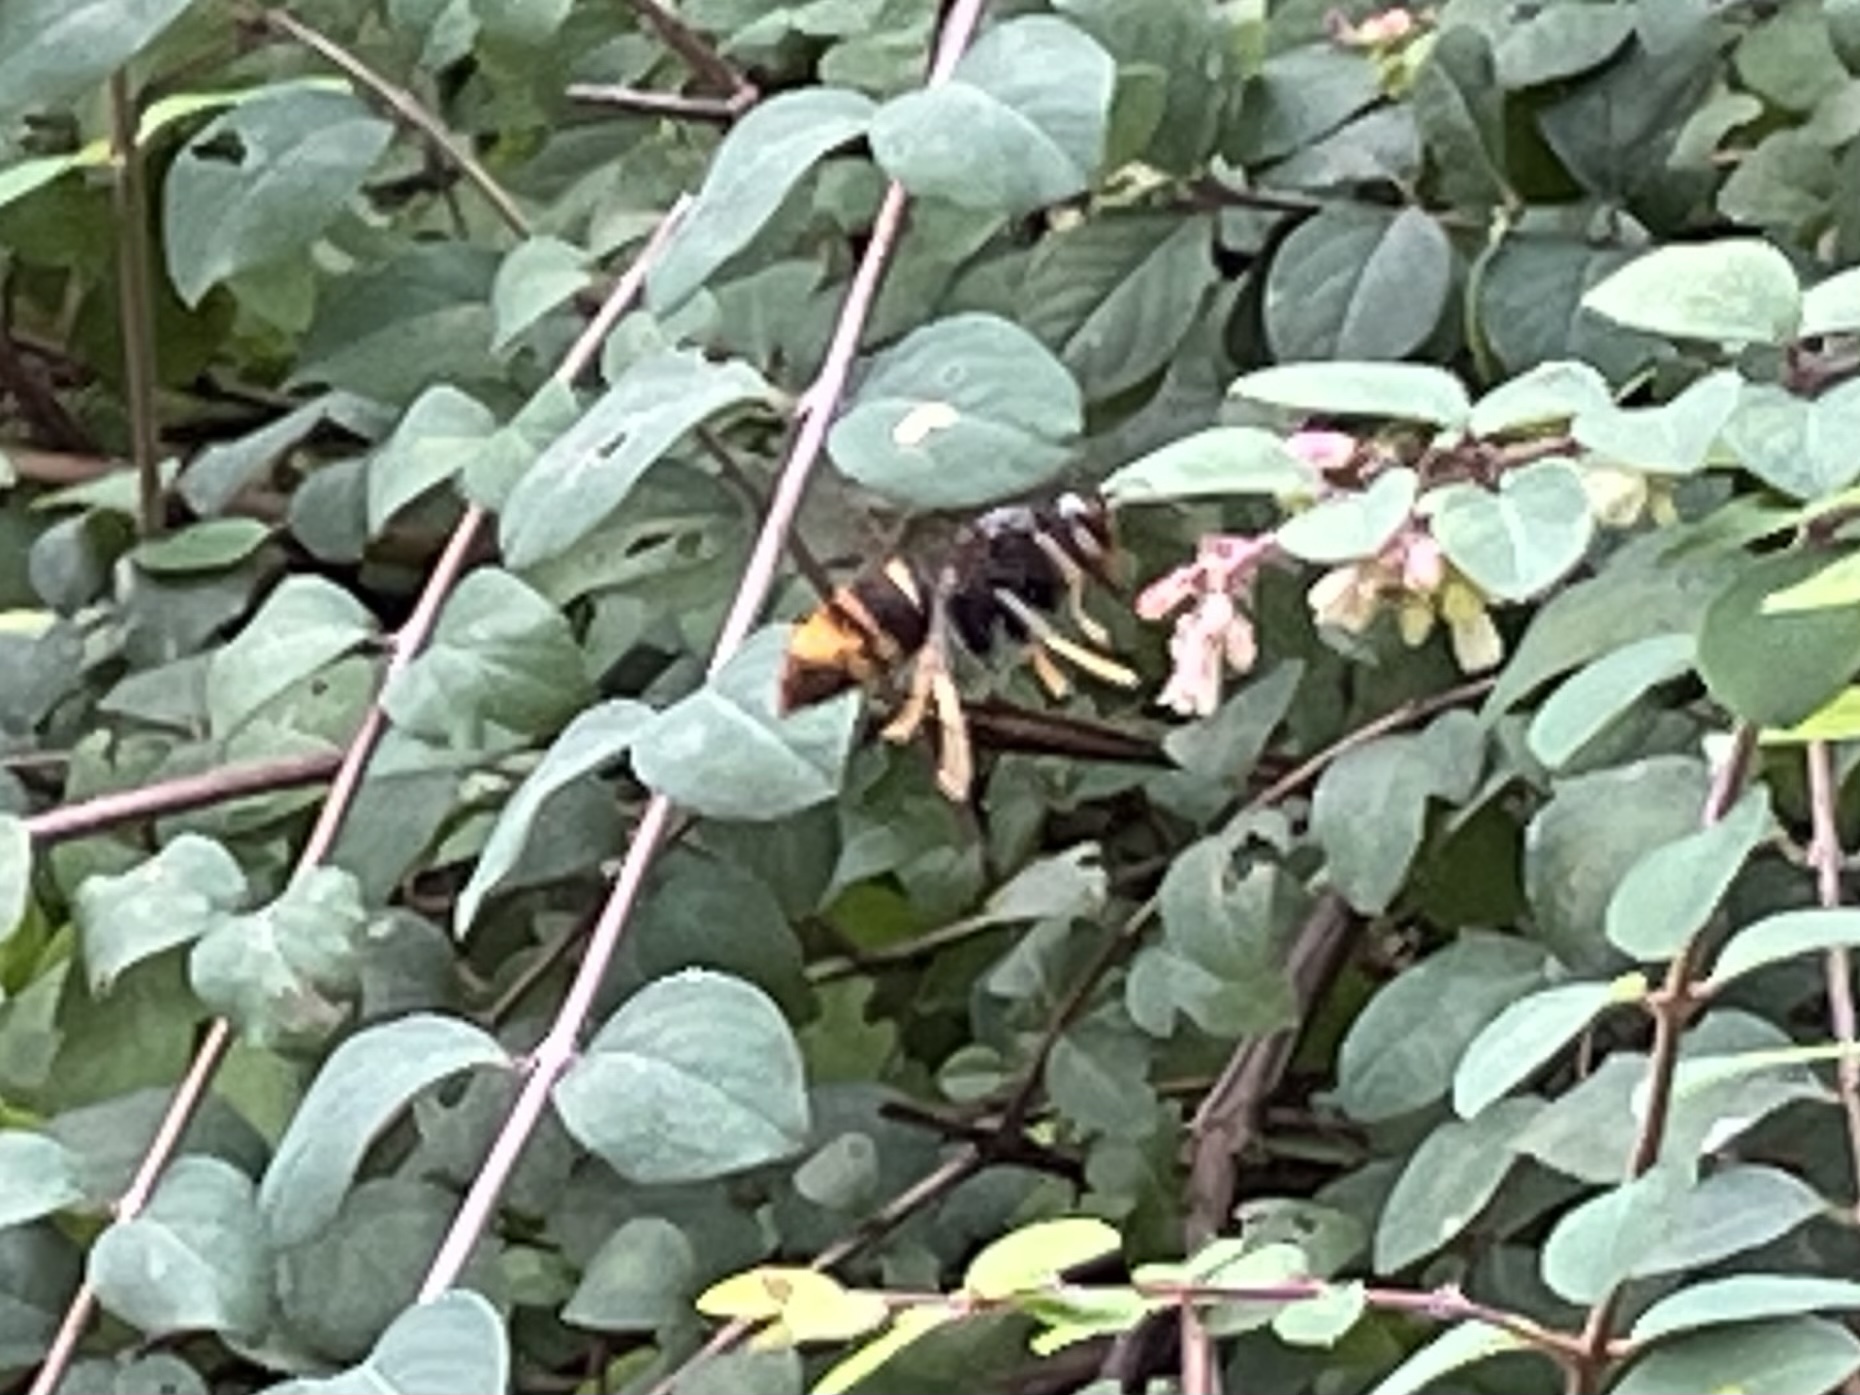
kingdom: Animalia
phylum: Arthropoda
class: Insecta
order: Hymenoptera
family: Vespidae
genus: Vespa
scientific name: Vespa velutina
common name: Asian hornet
